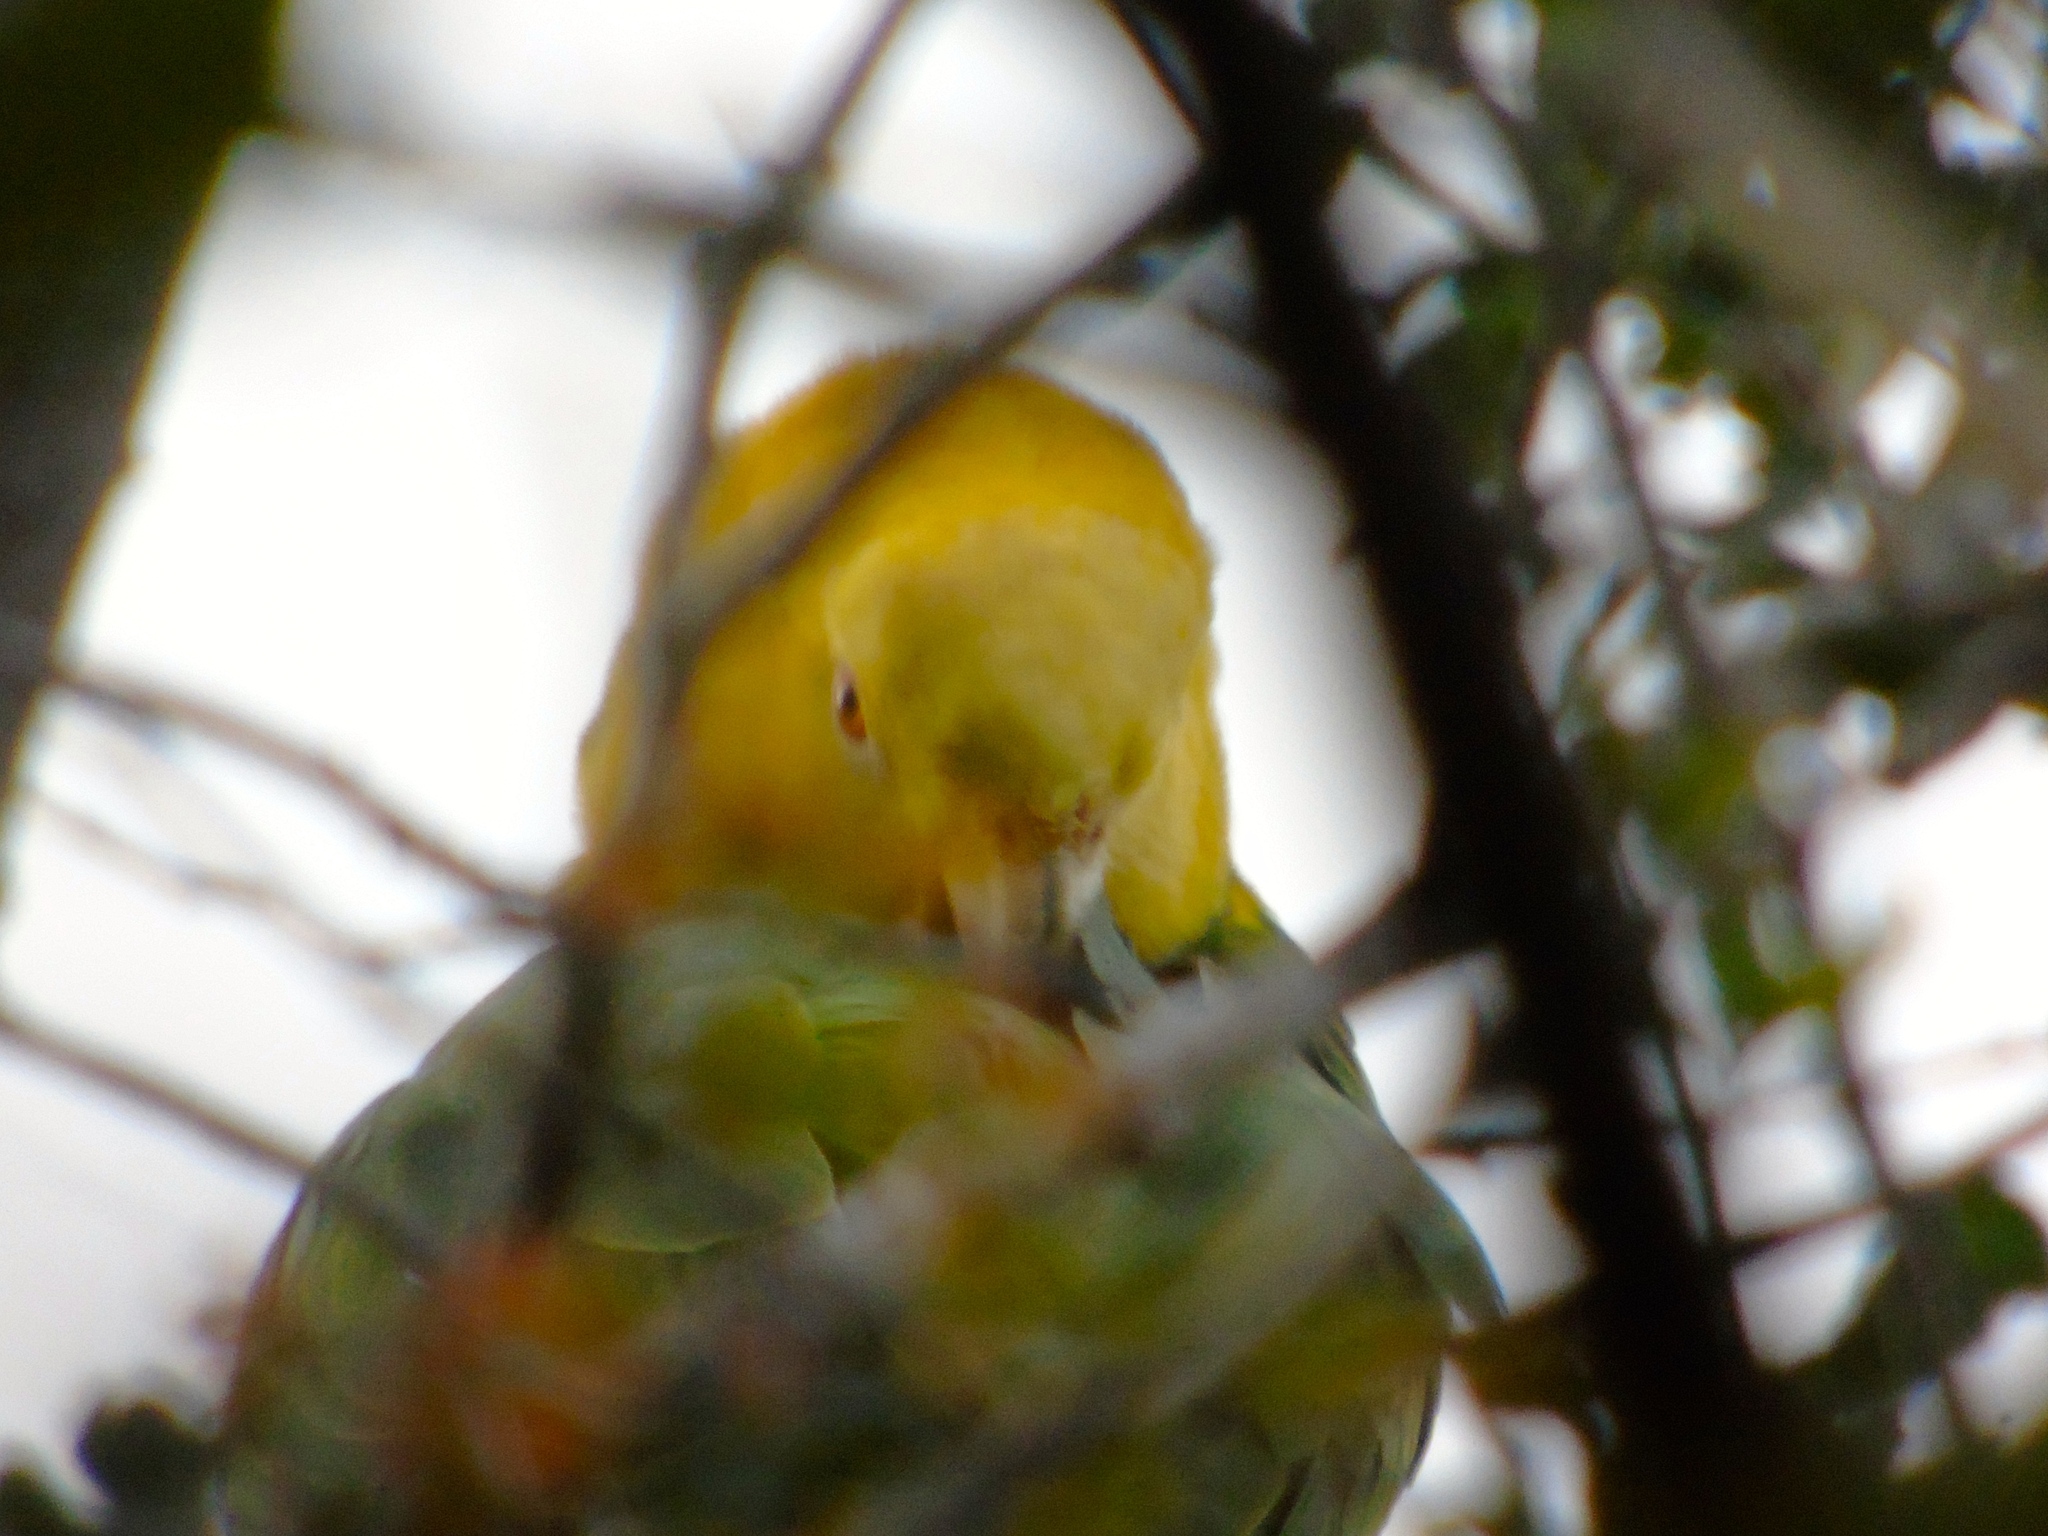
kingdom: Animalia
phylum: Chordata
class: Aves
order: Psittaciformes
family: Psittacidae
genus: Amazona
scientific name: Amazona oratrix
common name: Yellow-headed amazon
